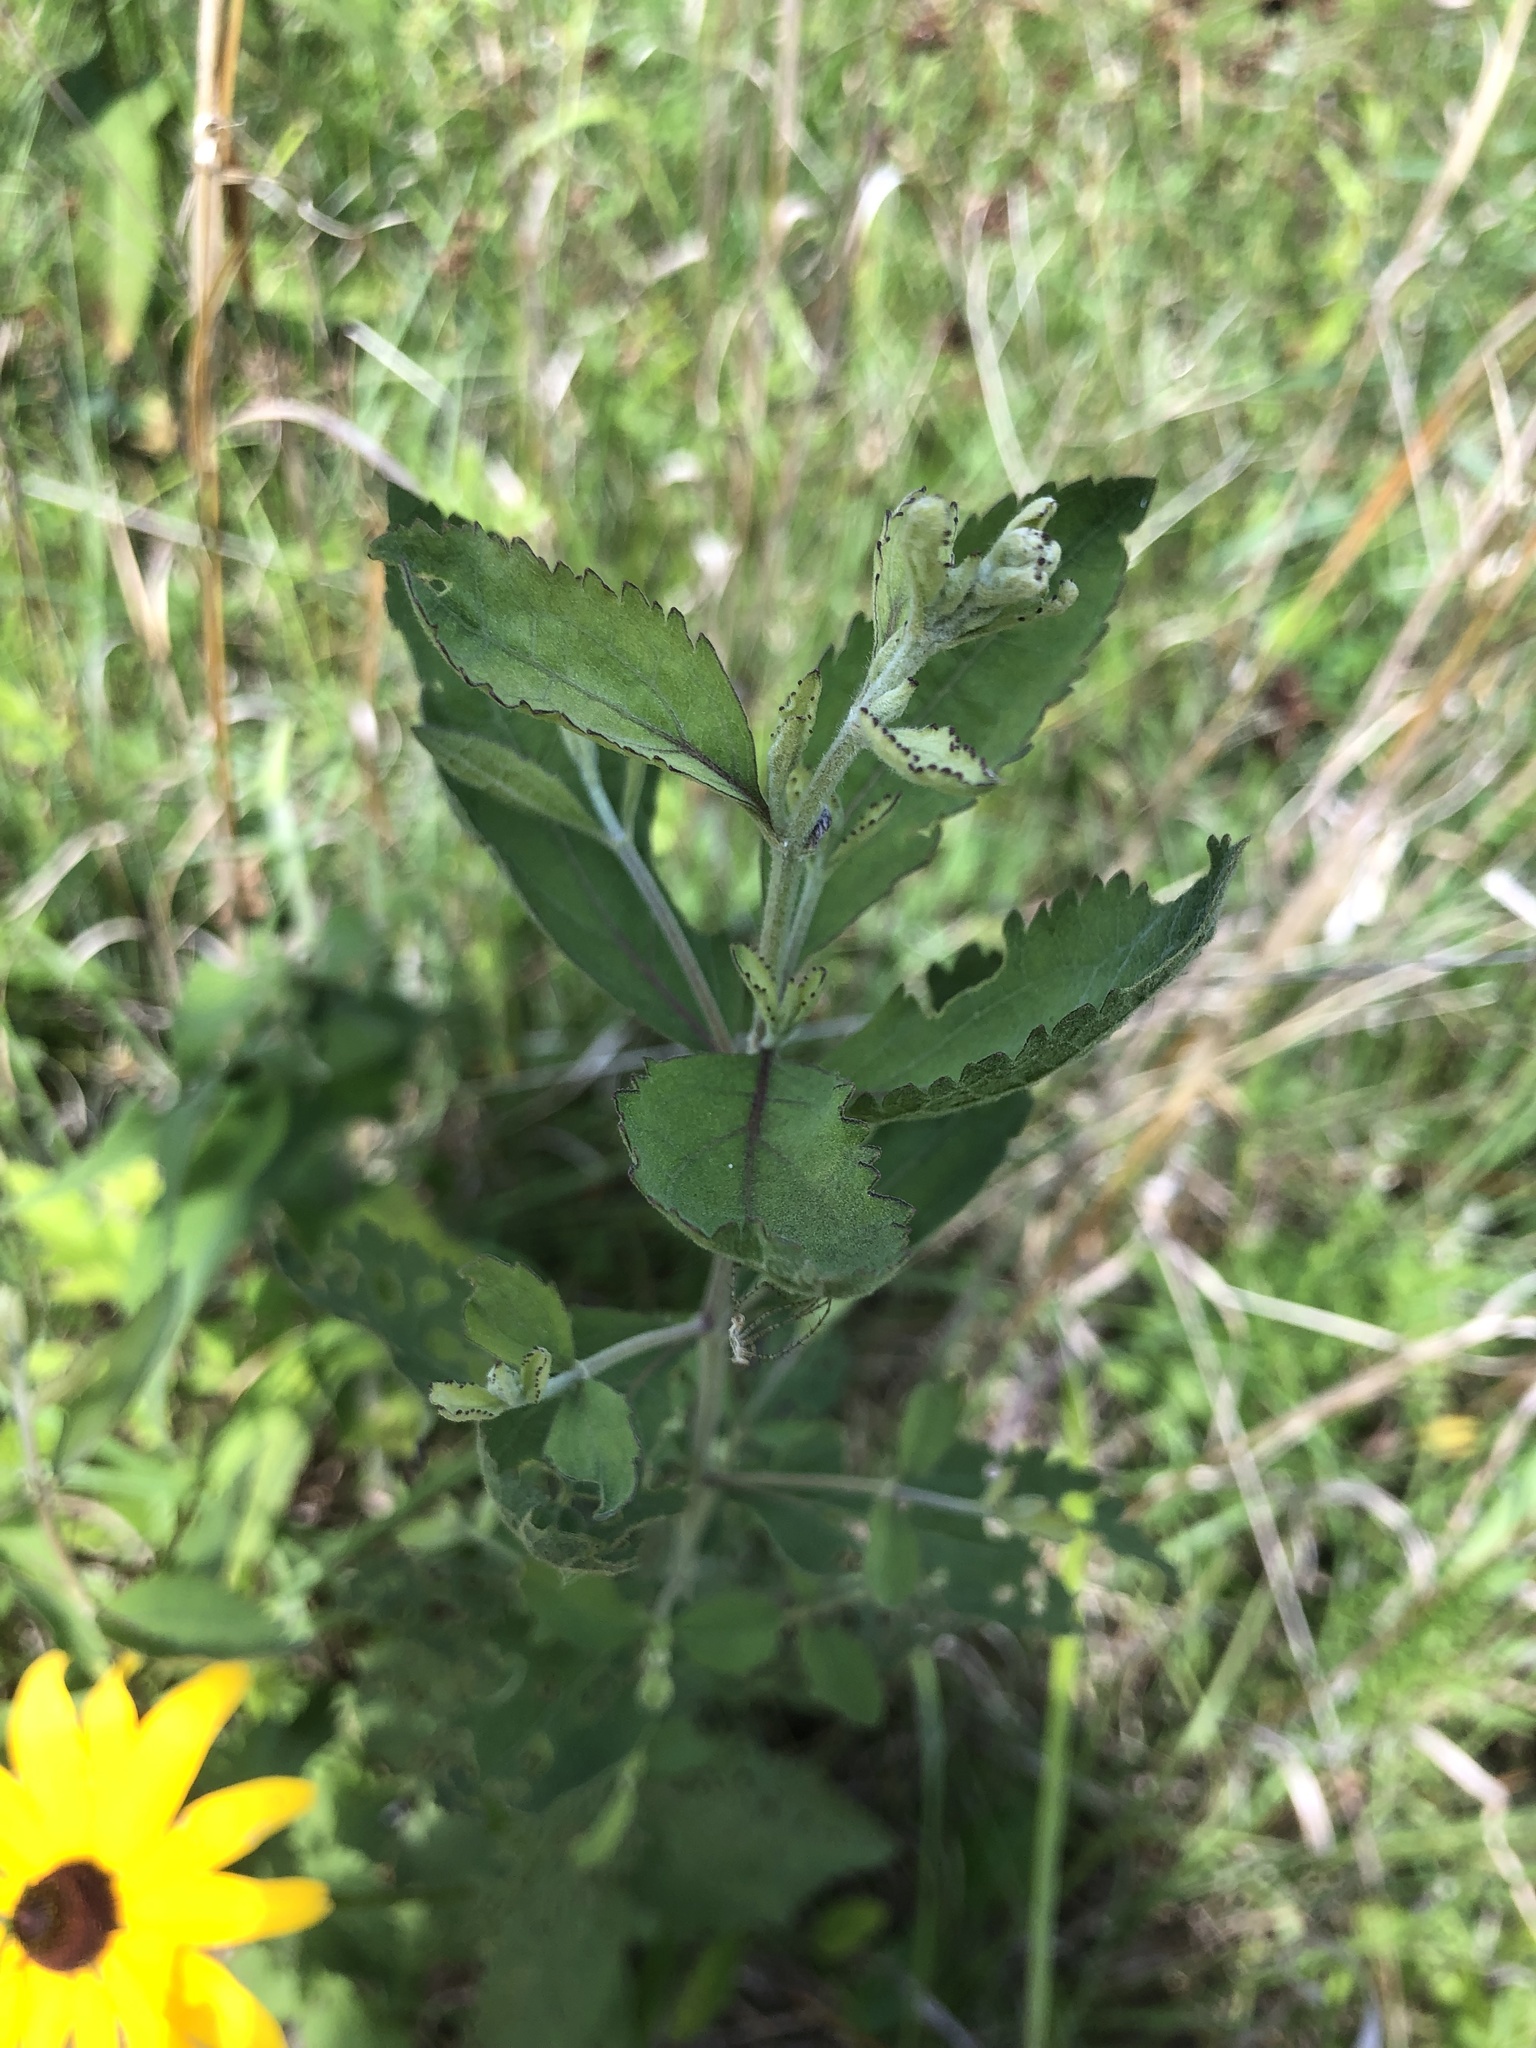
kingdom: Plantae
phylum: Tracheophyta
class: Magnoliopsida
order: Asterales
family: Asteraceae
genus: Eupatorium
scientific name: Eupatorium rotundifolium
